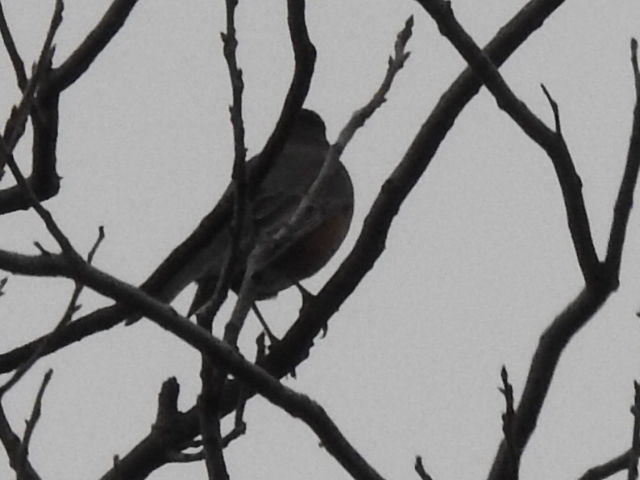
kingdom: Animalia
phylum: Chordata
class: Aves
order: Passeriformes
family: Turdidae
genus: Turdus
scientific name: Turdus migratorius
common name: American robin
